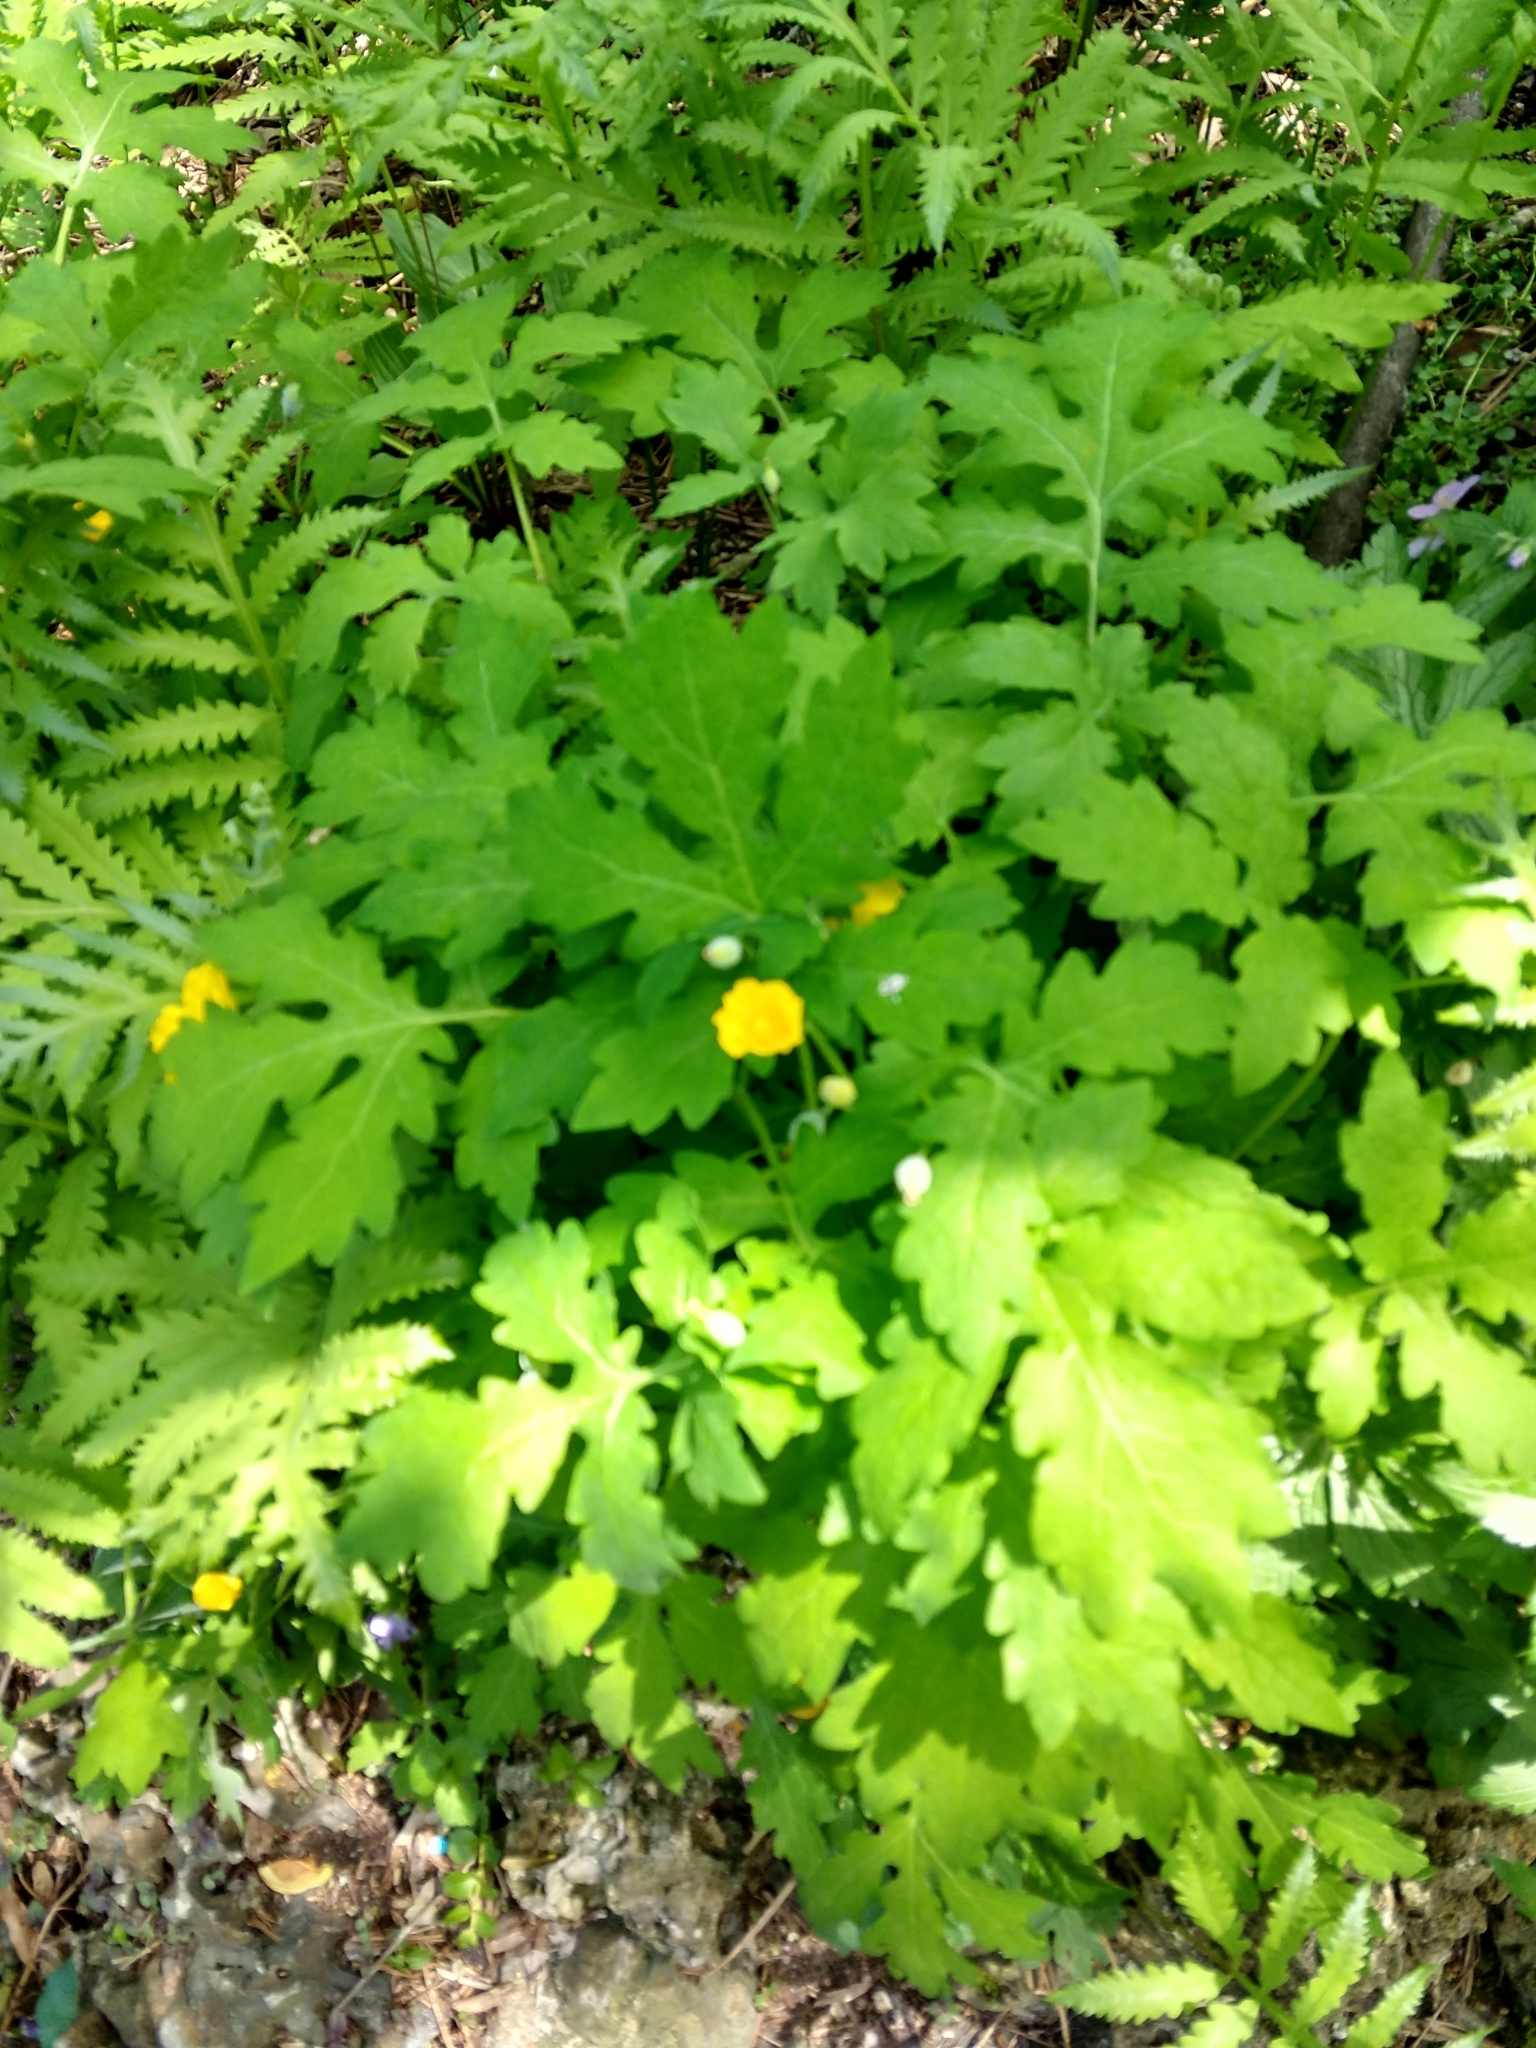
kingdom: Plantae
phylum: Tracheophyta
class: Magnoliopsida
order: Ranunculales
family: Papaveraceae
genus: Stylophorum
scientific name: Stylophorum diphyllum
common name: Celandine poppy
